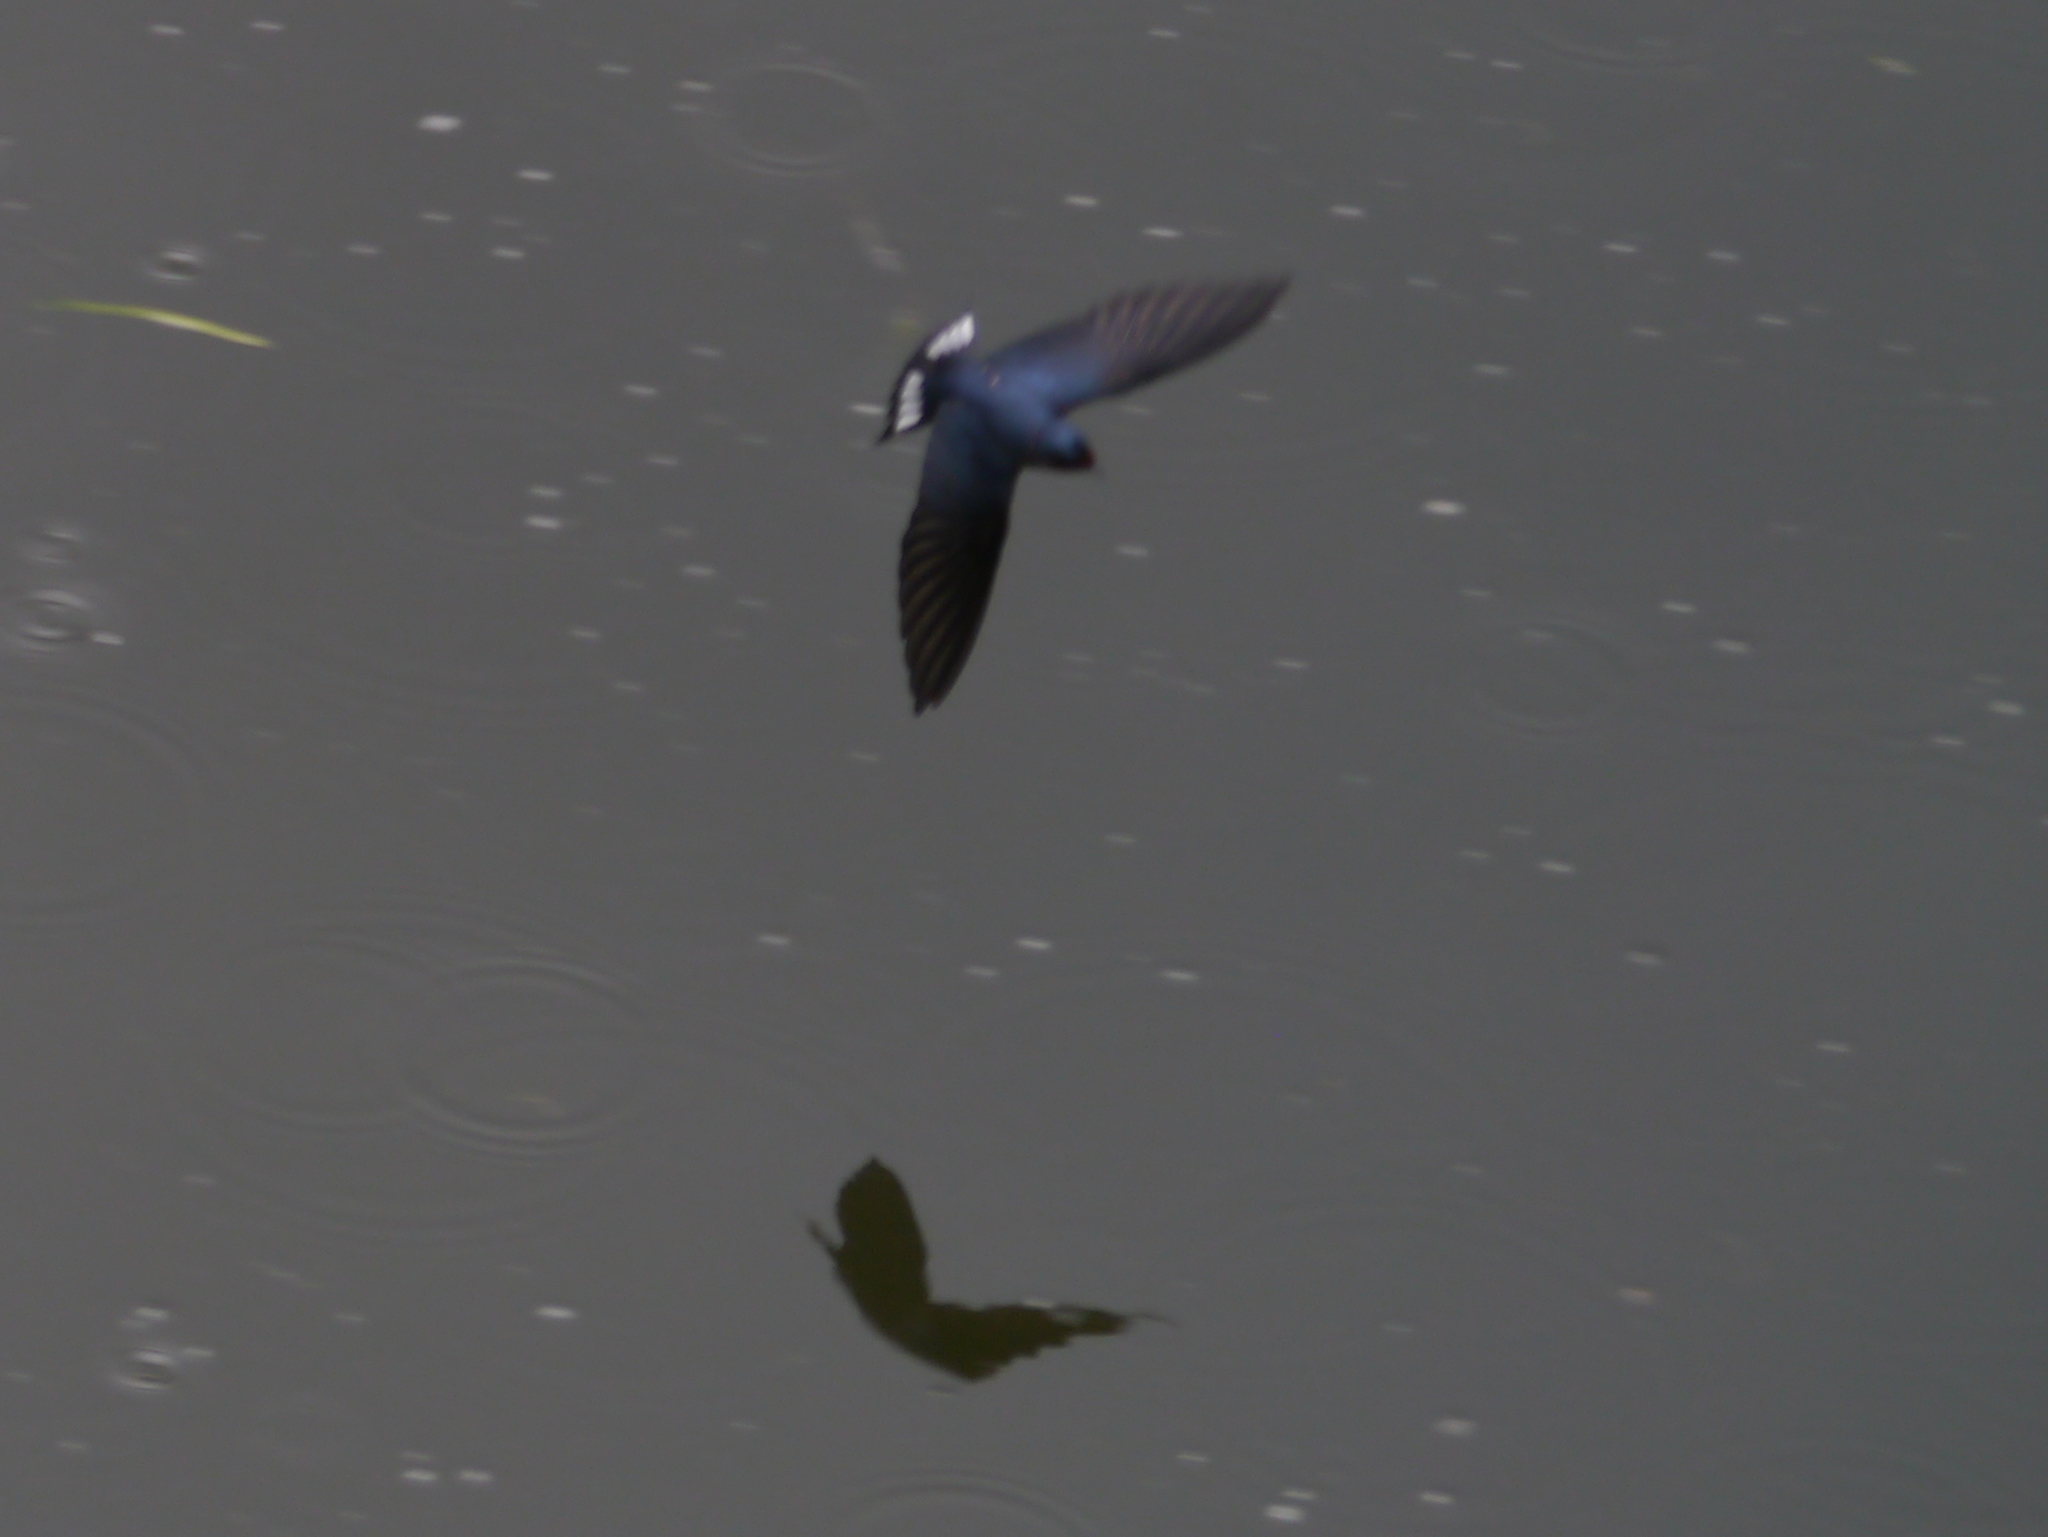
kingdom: Animalia
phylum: Chordata
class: Aves
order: Passeriformes
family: Hirundinidae
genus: Hirundo
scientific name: Hirundo angolensis
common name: Angola swallow
